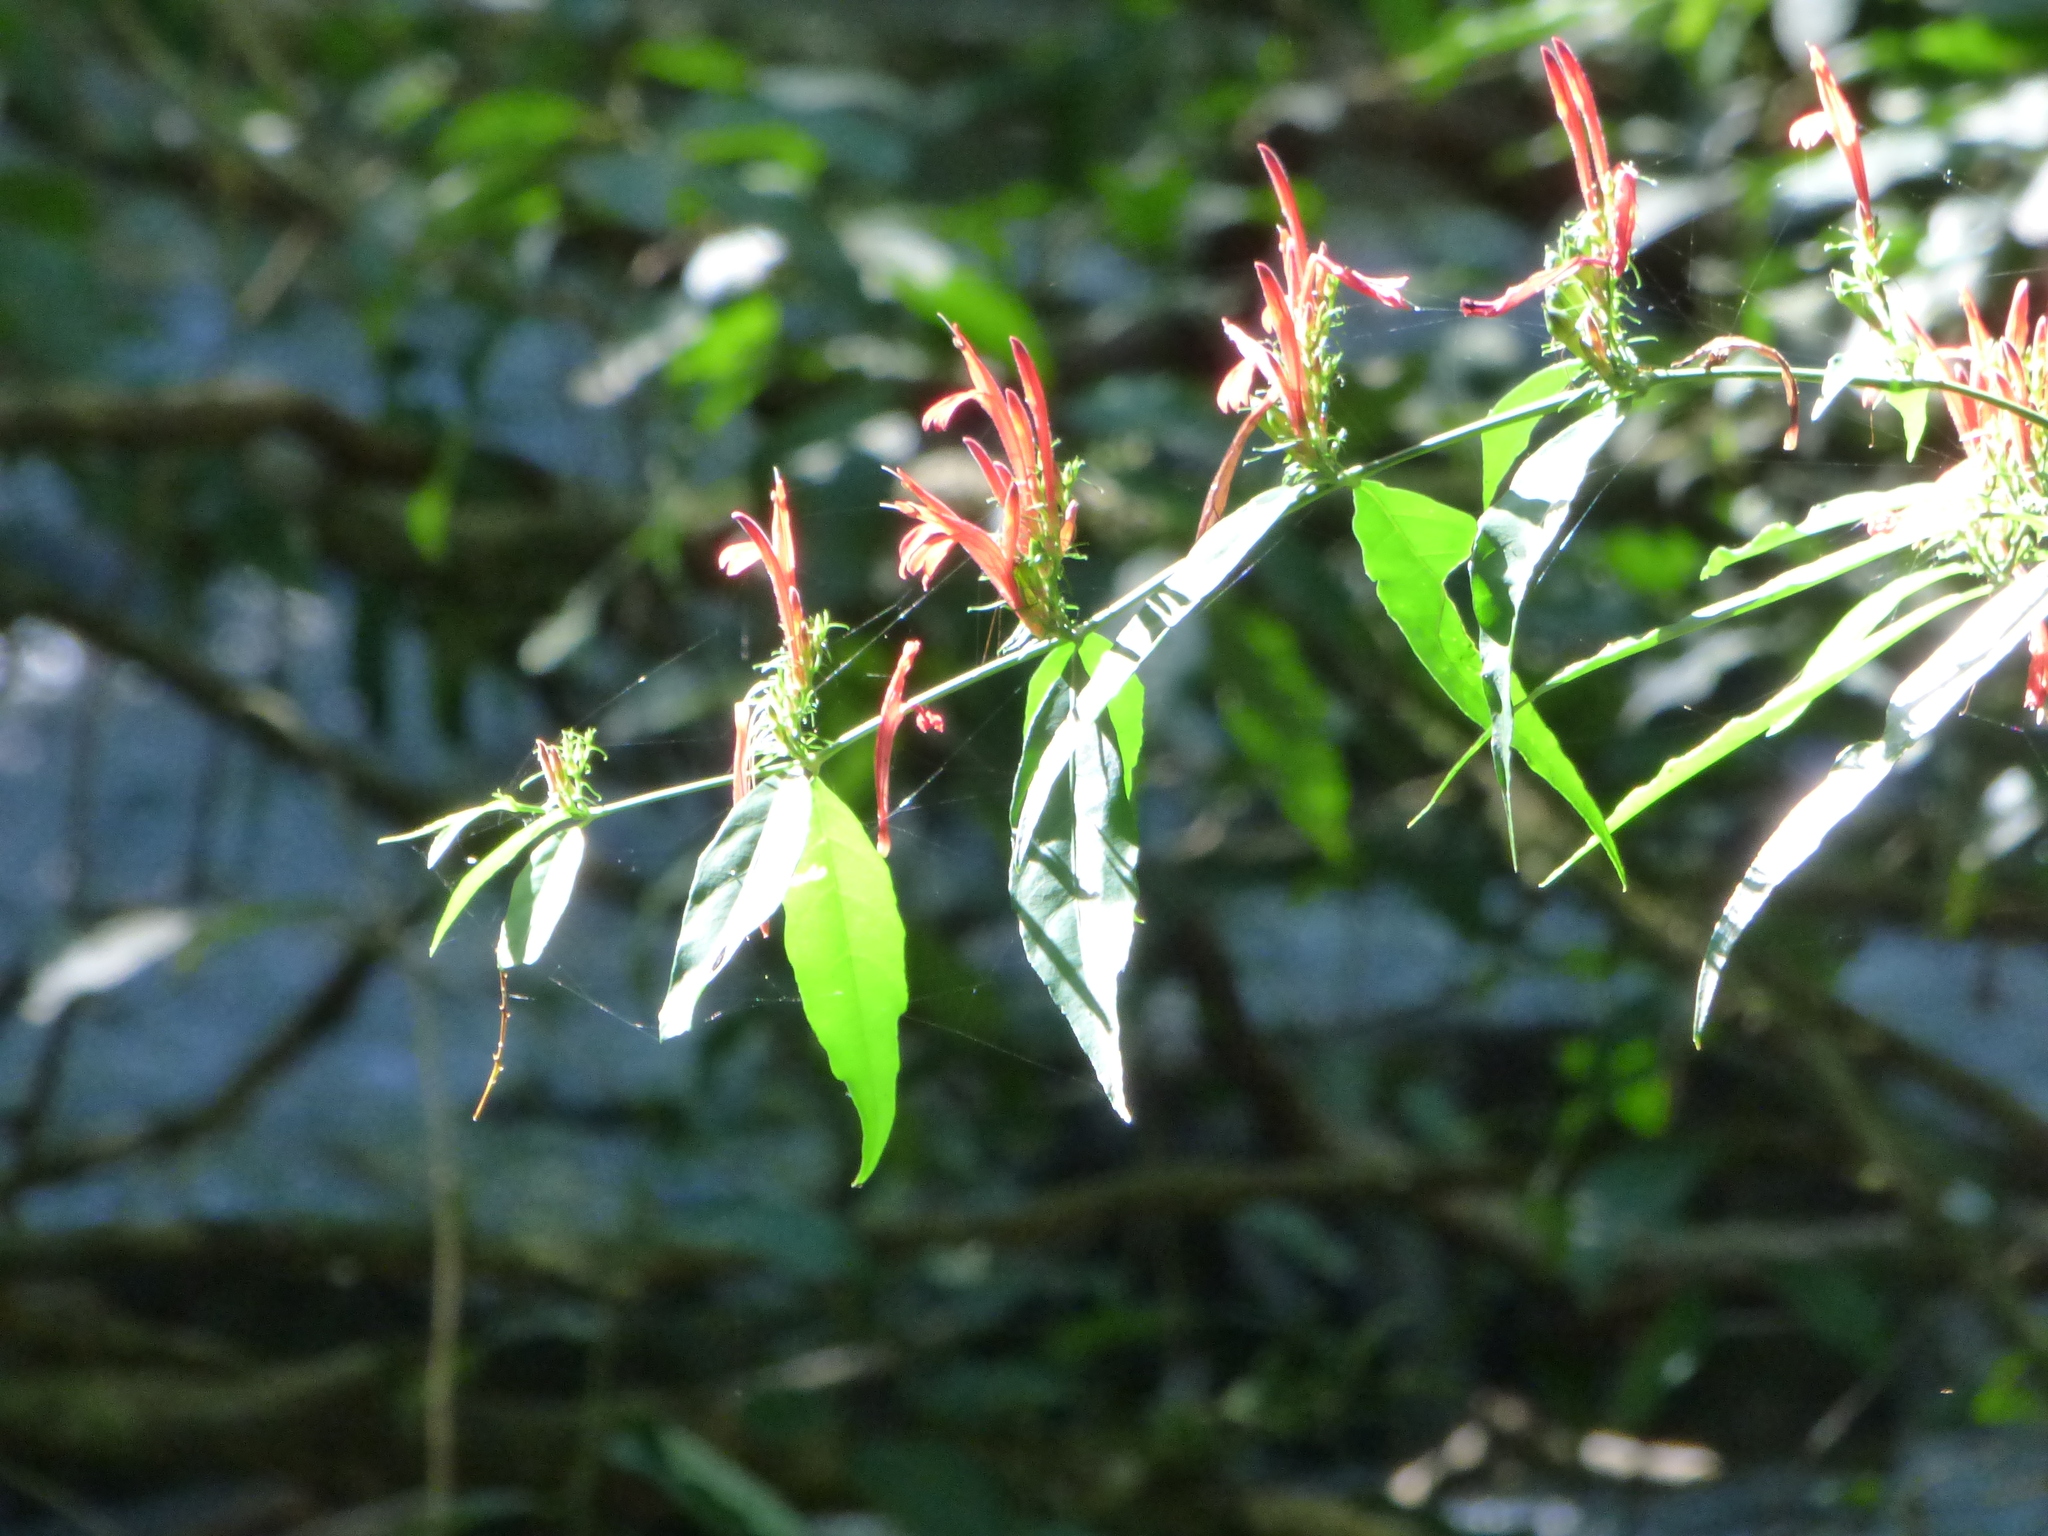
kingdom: Plantae
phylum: Tracheophyta
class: Magnoliopsida
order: Lamiales
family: Acanthaceae
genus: Justicia
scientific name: Justicia brasiliana
